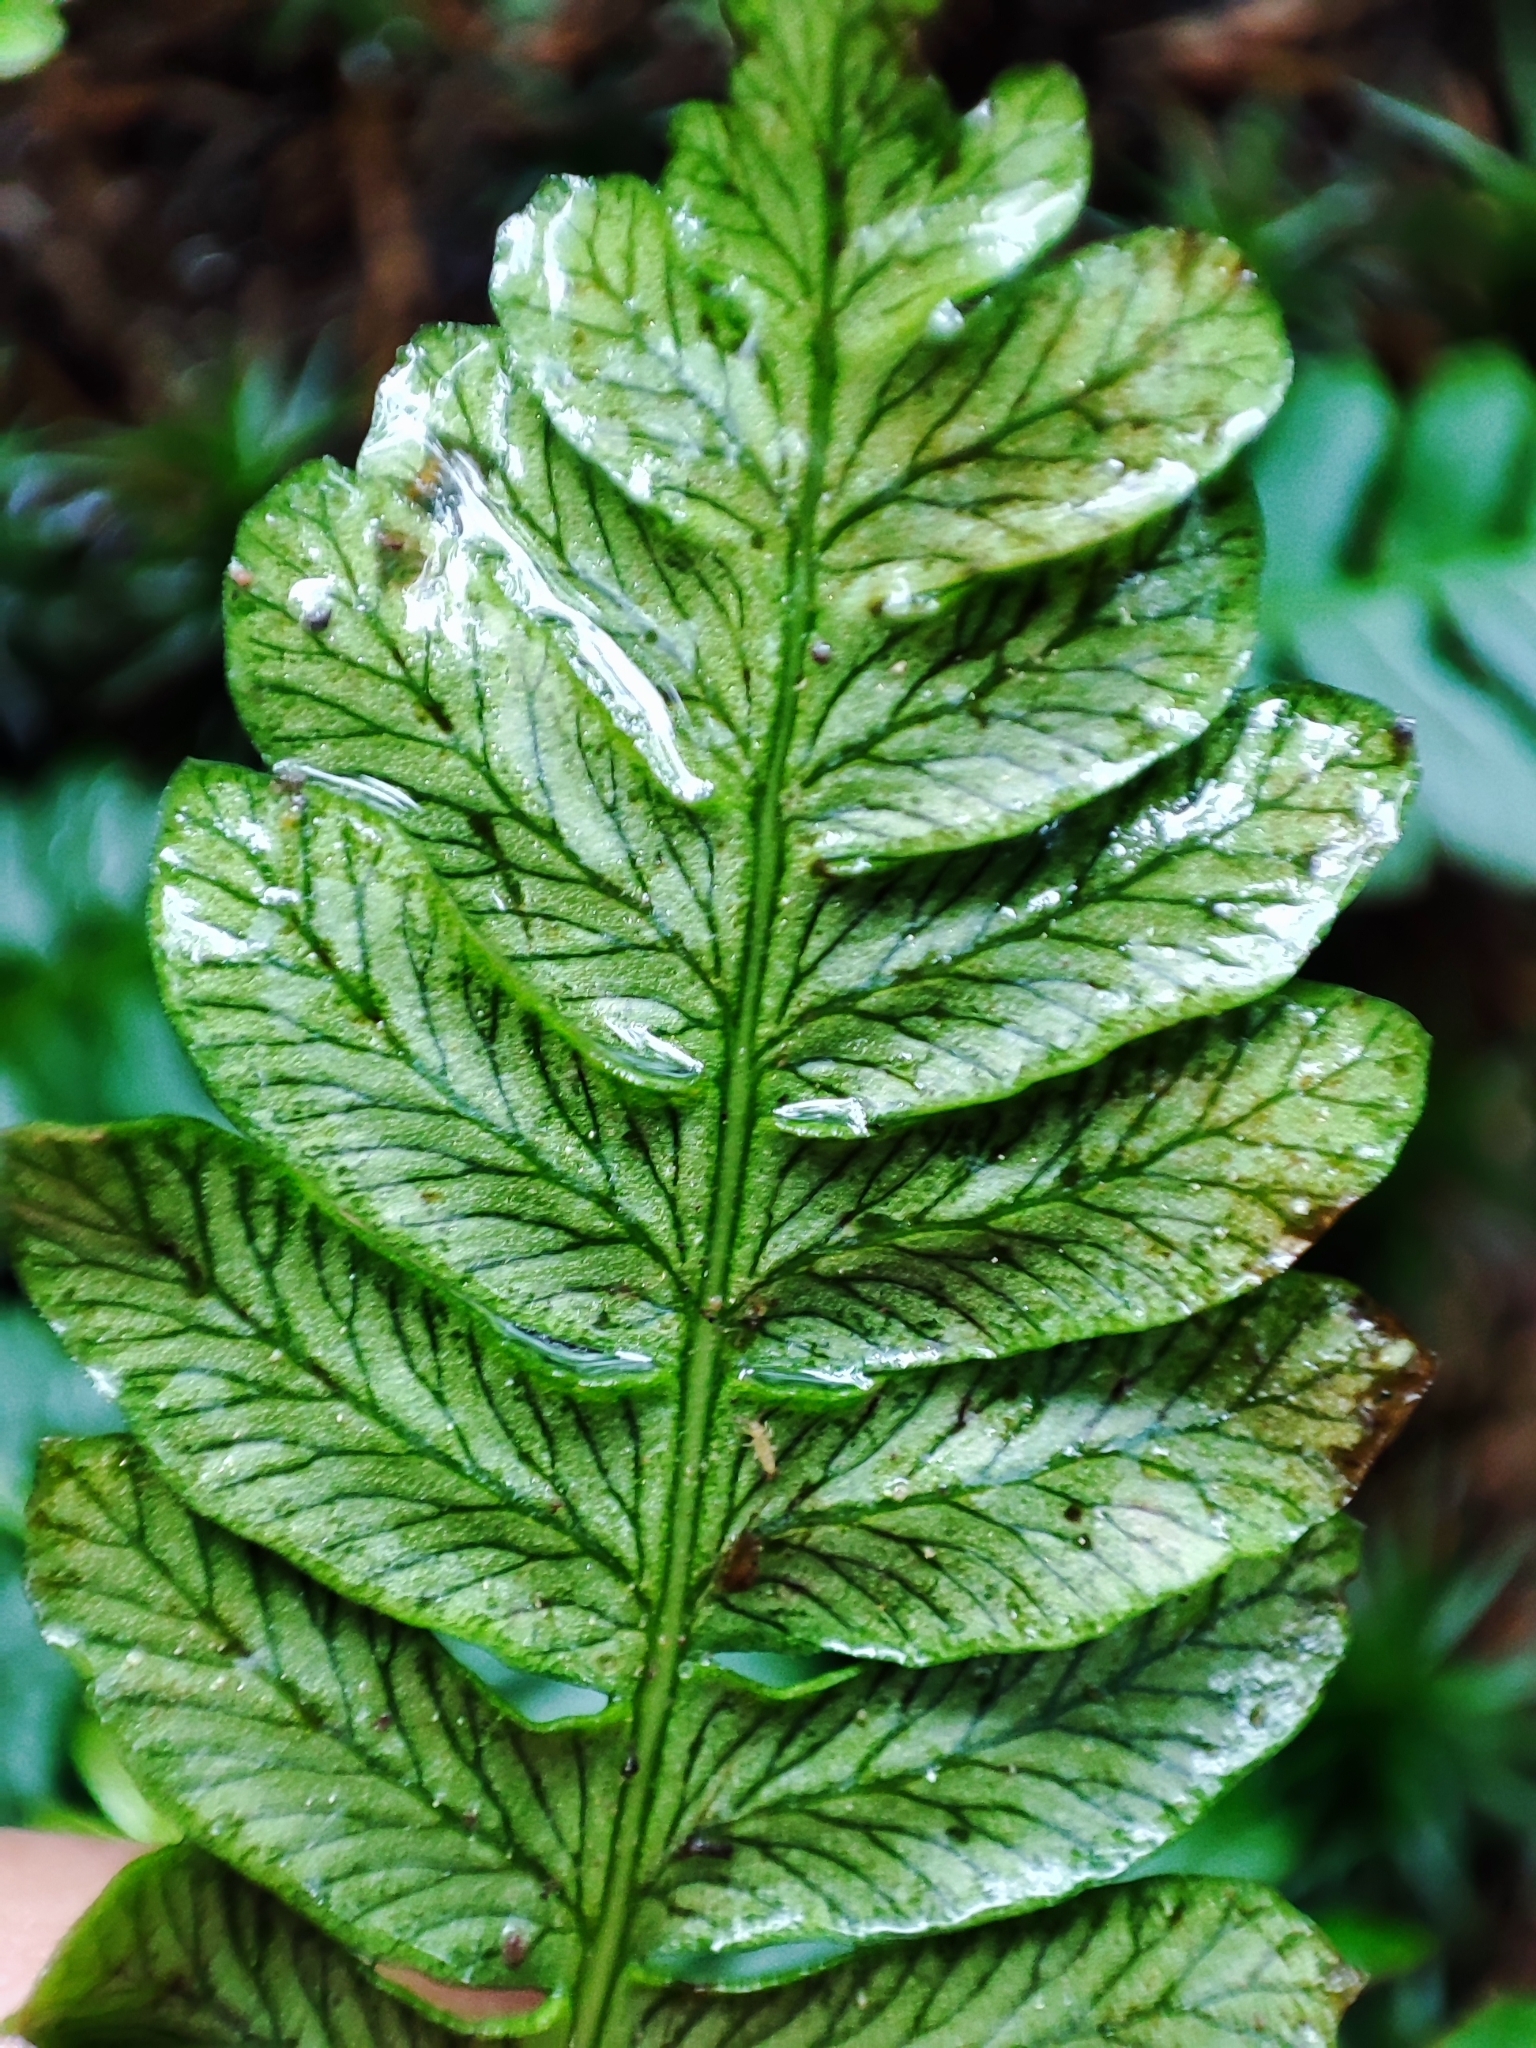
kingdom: Plantae
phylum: Tracheophyta
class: Polypodiopsida
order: Polypodiales
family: Blechnaceae
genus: Struthiopteris
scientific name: Struthiopteris spicant
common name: Deer fern
